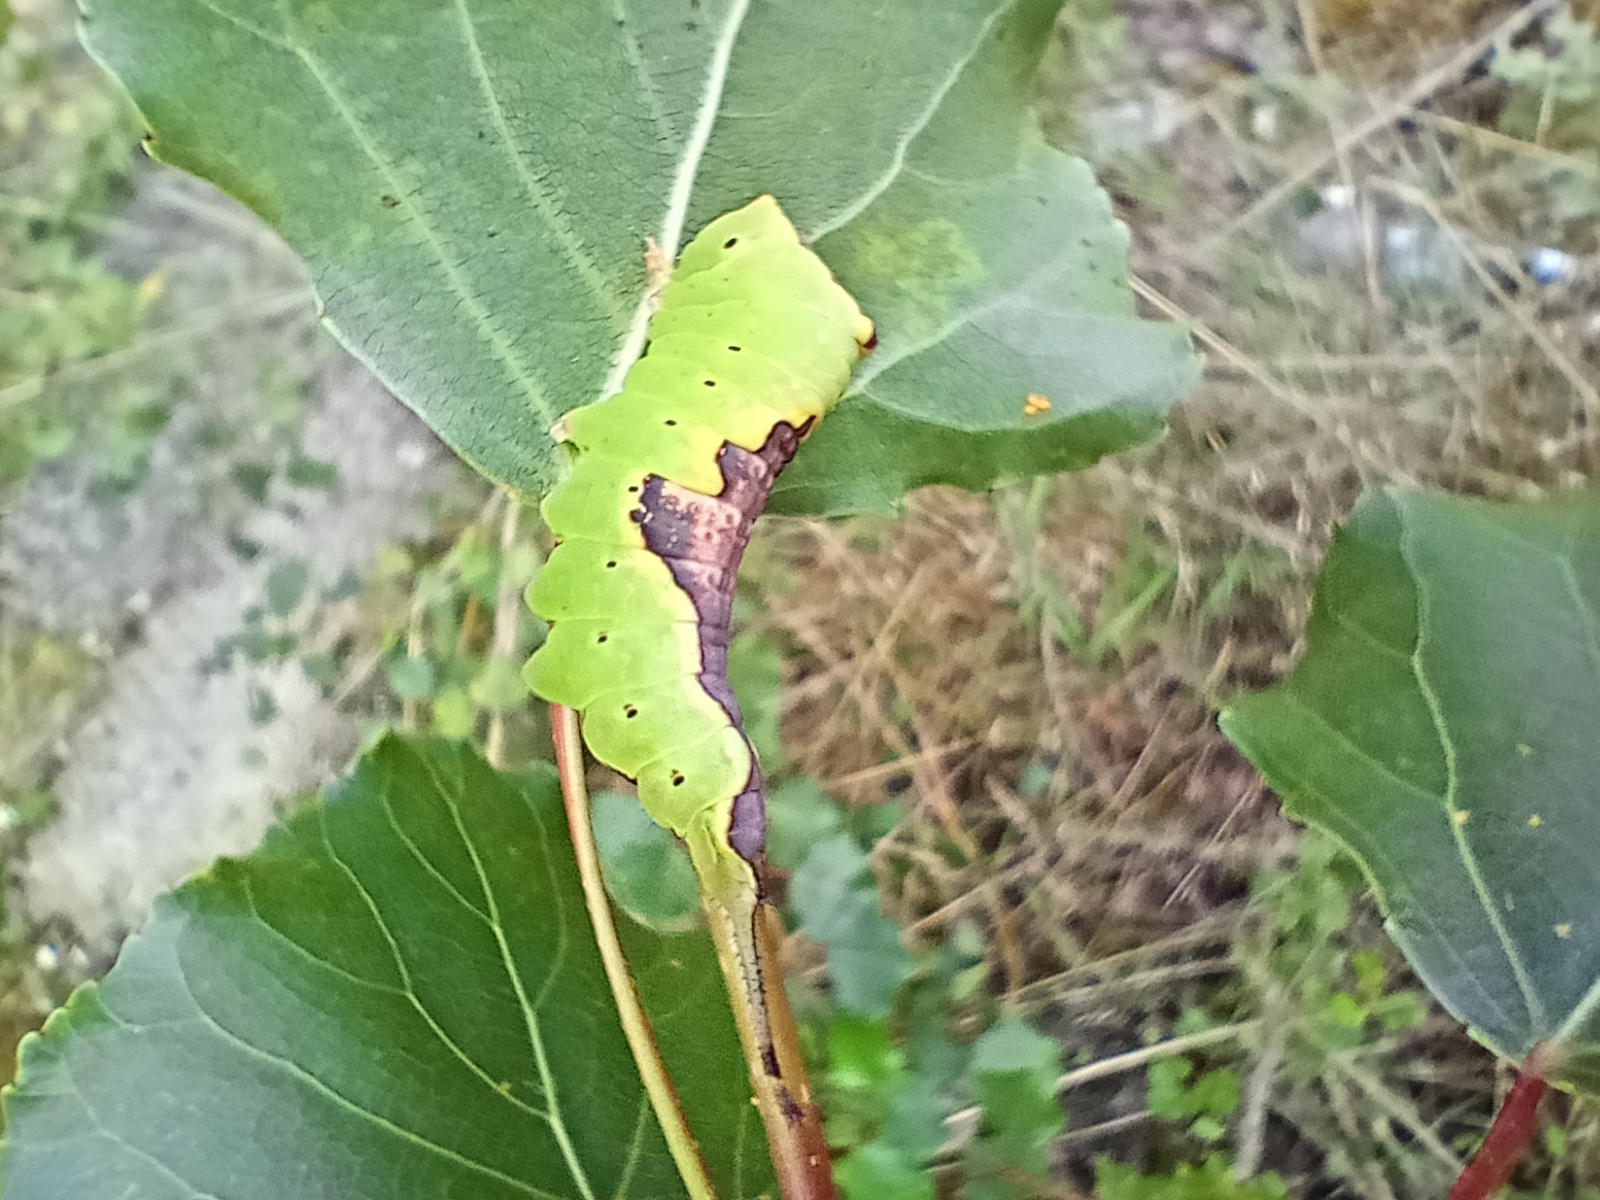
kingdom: Animalia
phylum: Arthropoda
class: Insecta
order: Lepidoptera
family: Notodontidae
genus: Furcula
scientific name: Furcula bifida
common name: Poplar kitten
